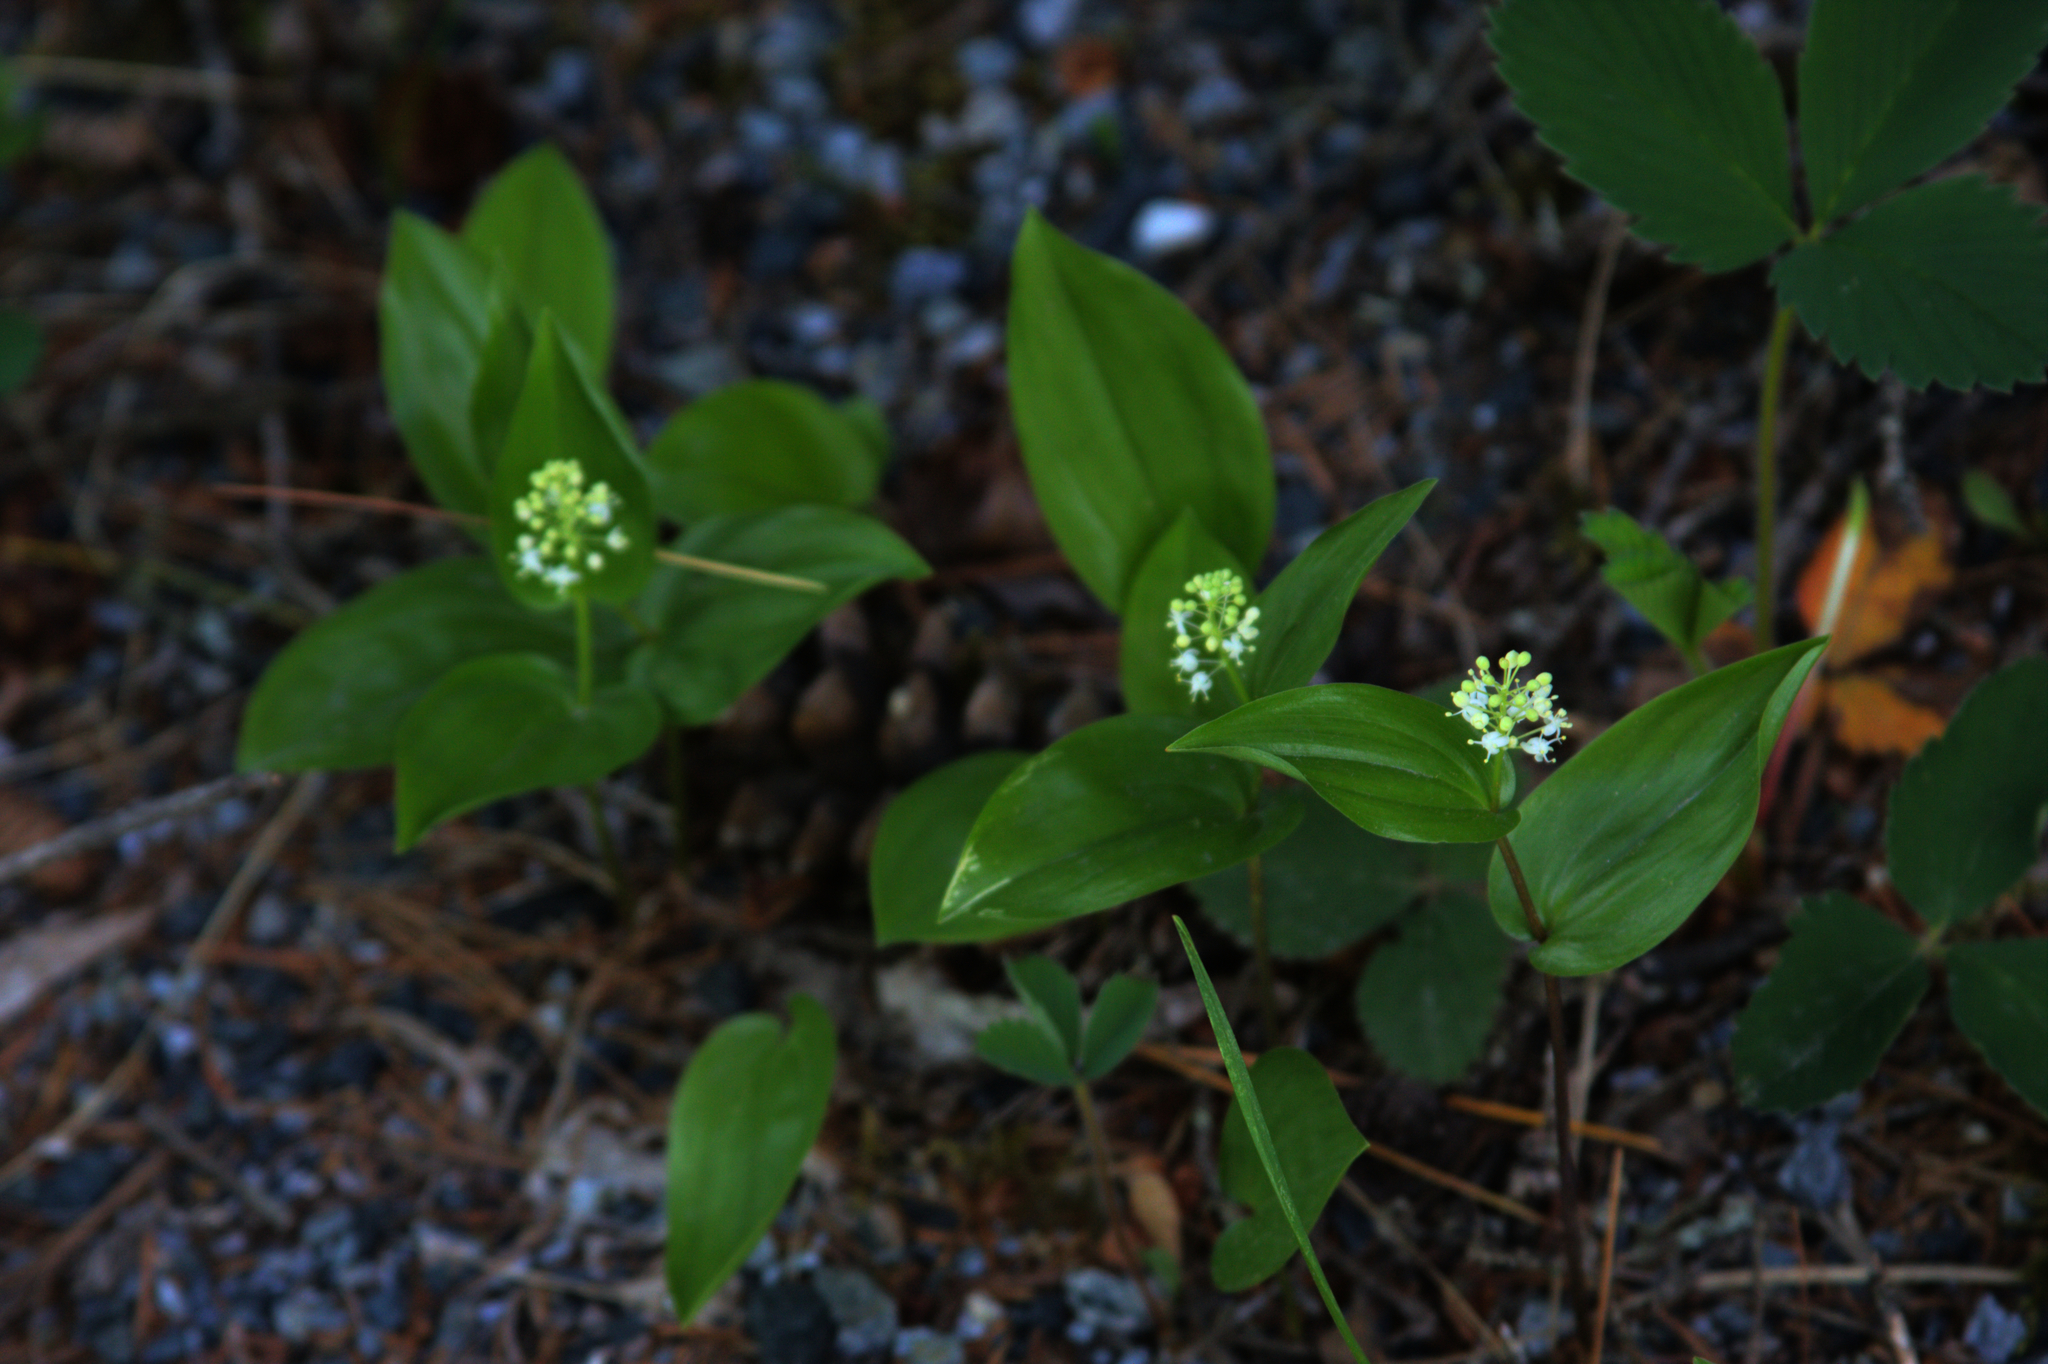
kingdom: Plantae
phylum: Tracheophyta
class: Liliopsida
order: Asparagales
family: Asparagaceae
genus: Maianthemum
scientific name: Maianthemum canadense
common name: False lily-of-the-valley
